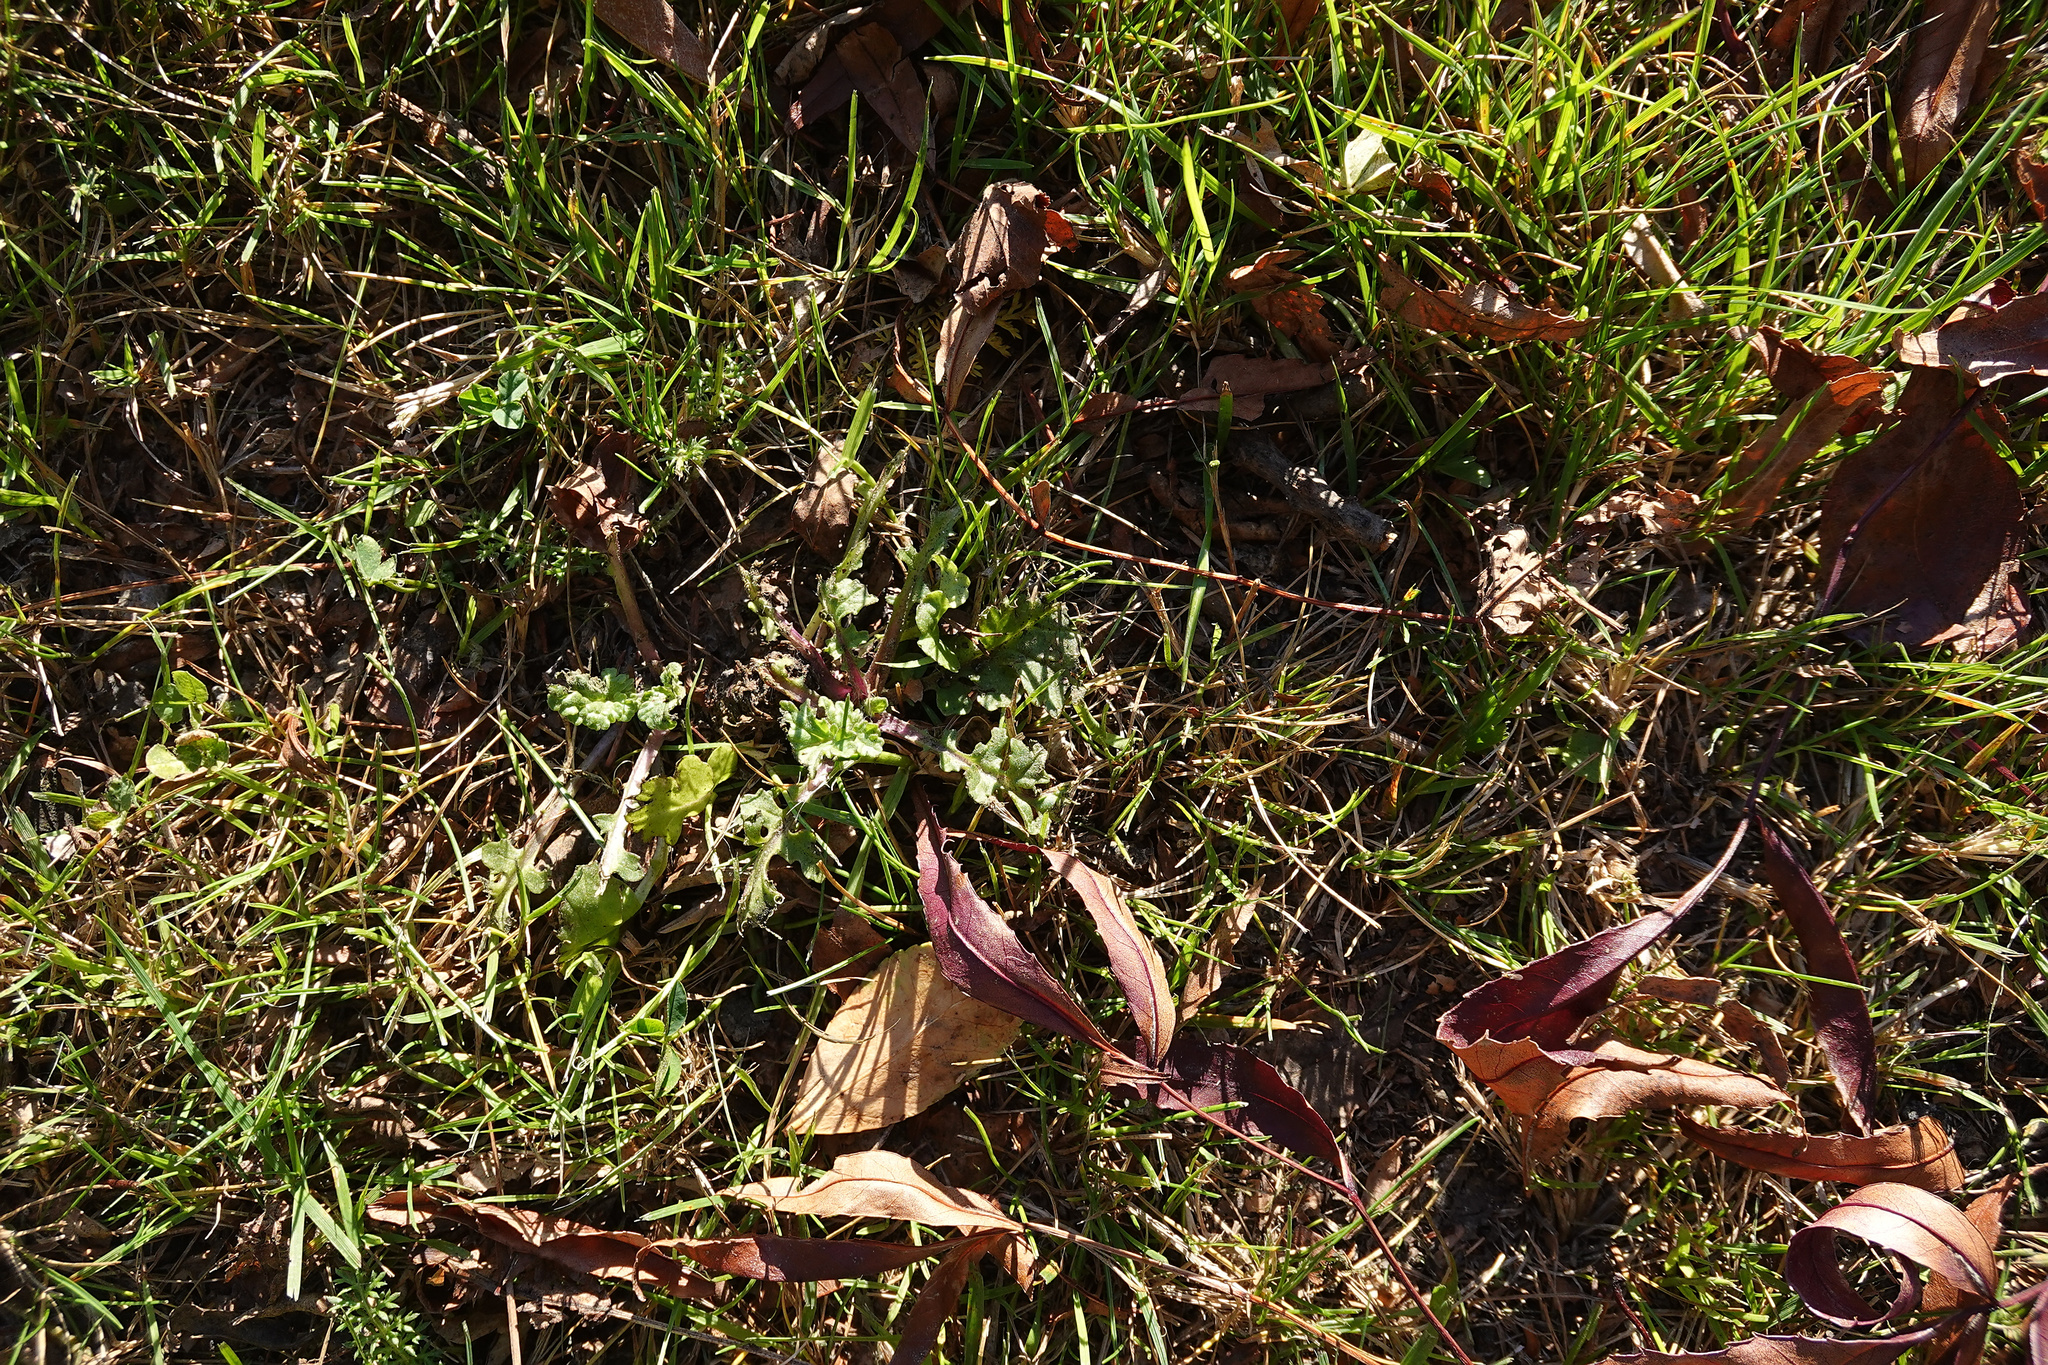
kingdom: Plantae
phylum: Tracheophyta
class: Magnoliopsida
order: Asterales
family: Asteraceae
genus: Jacobaea
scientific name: Jacobaea vulgaris
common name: Stinking willie
